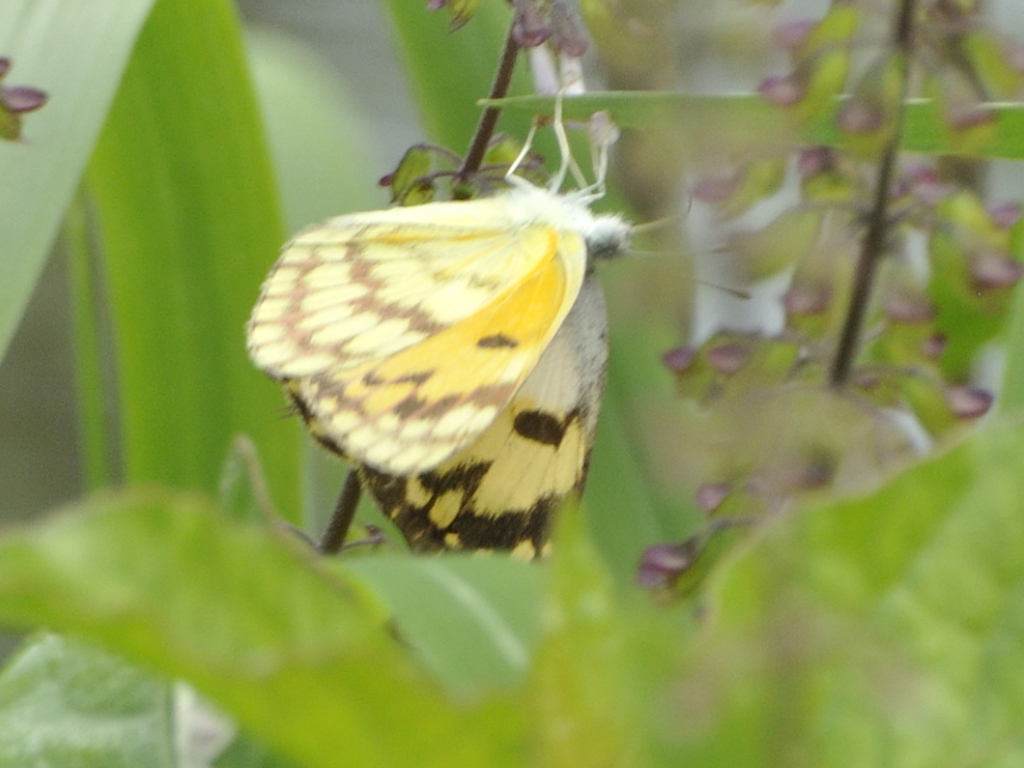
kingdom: Animalia
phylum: Arthropoda
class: Insecta
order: Lepidoptera
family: Pieridae
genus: Colotis
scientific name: Colotis vesta
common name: Veined golden arab
